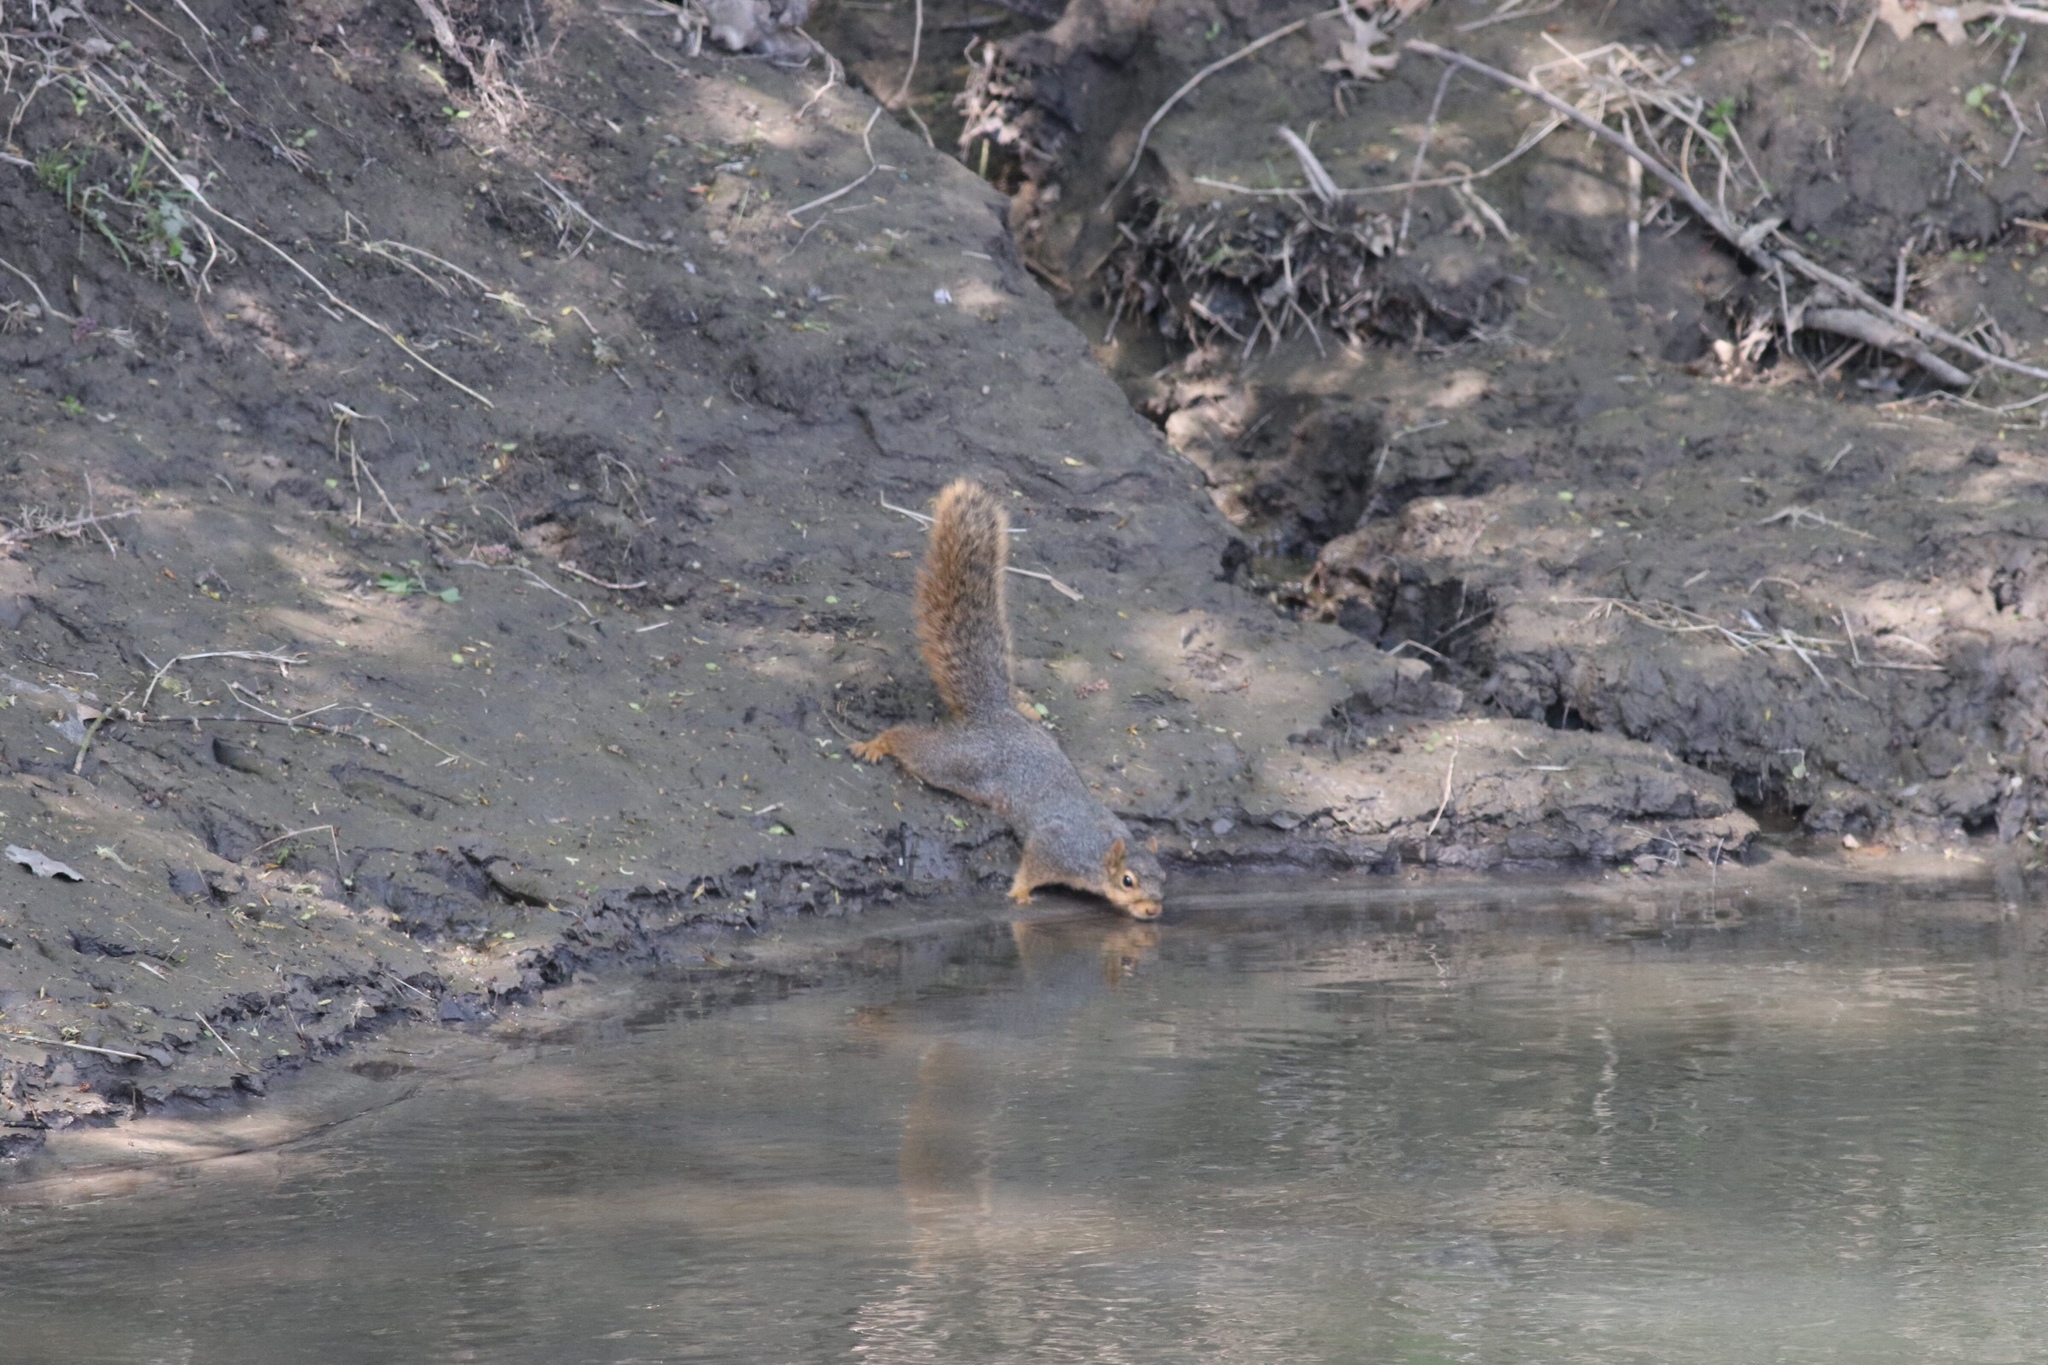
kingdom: Animalia
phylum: Chordata
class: Mammalia
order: Rodentia
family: Sciuridae
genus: Sciurus
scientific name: Sciurus niger
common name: Fox squirrel
